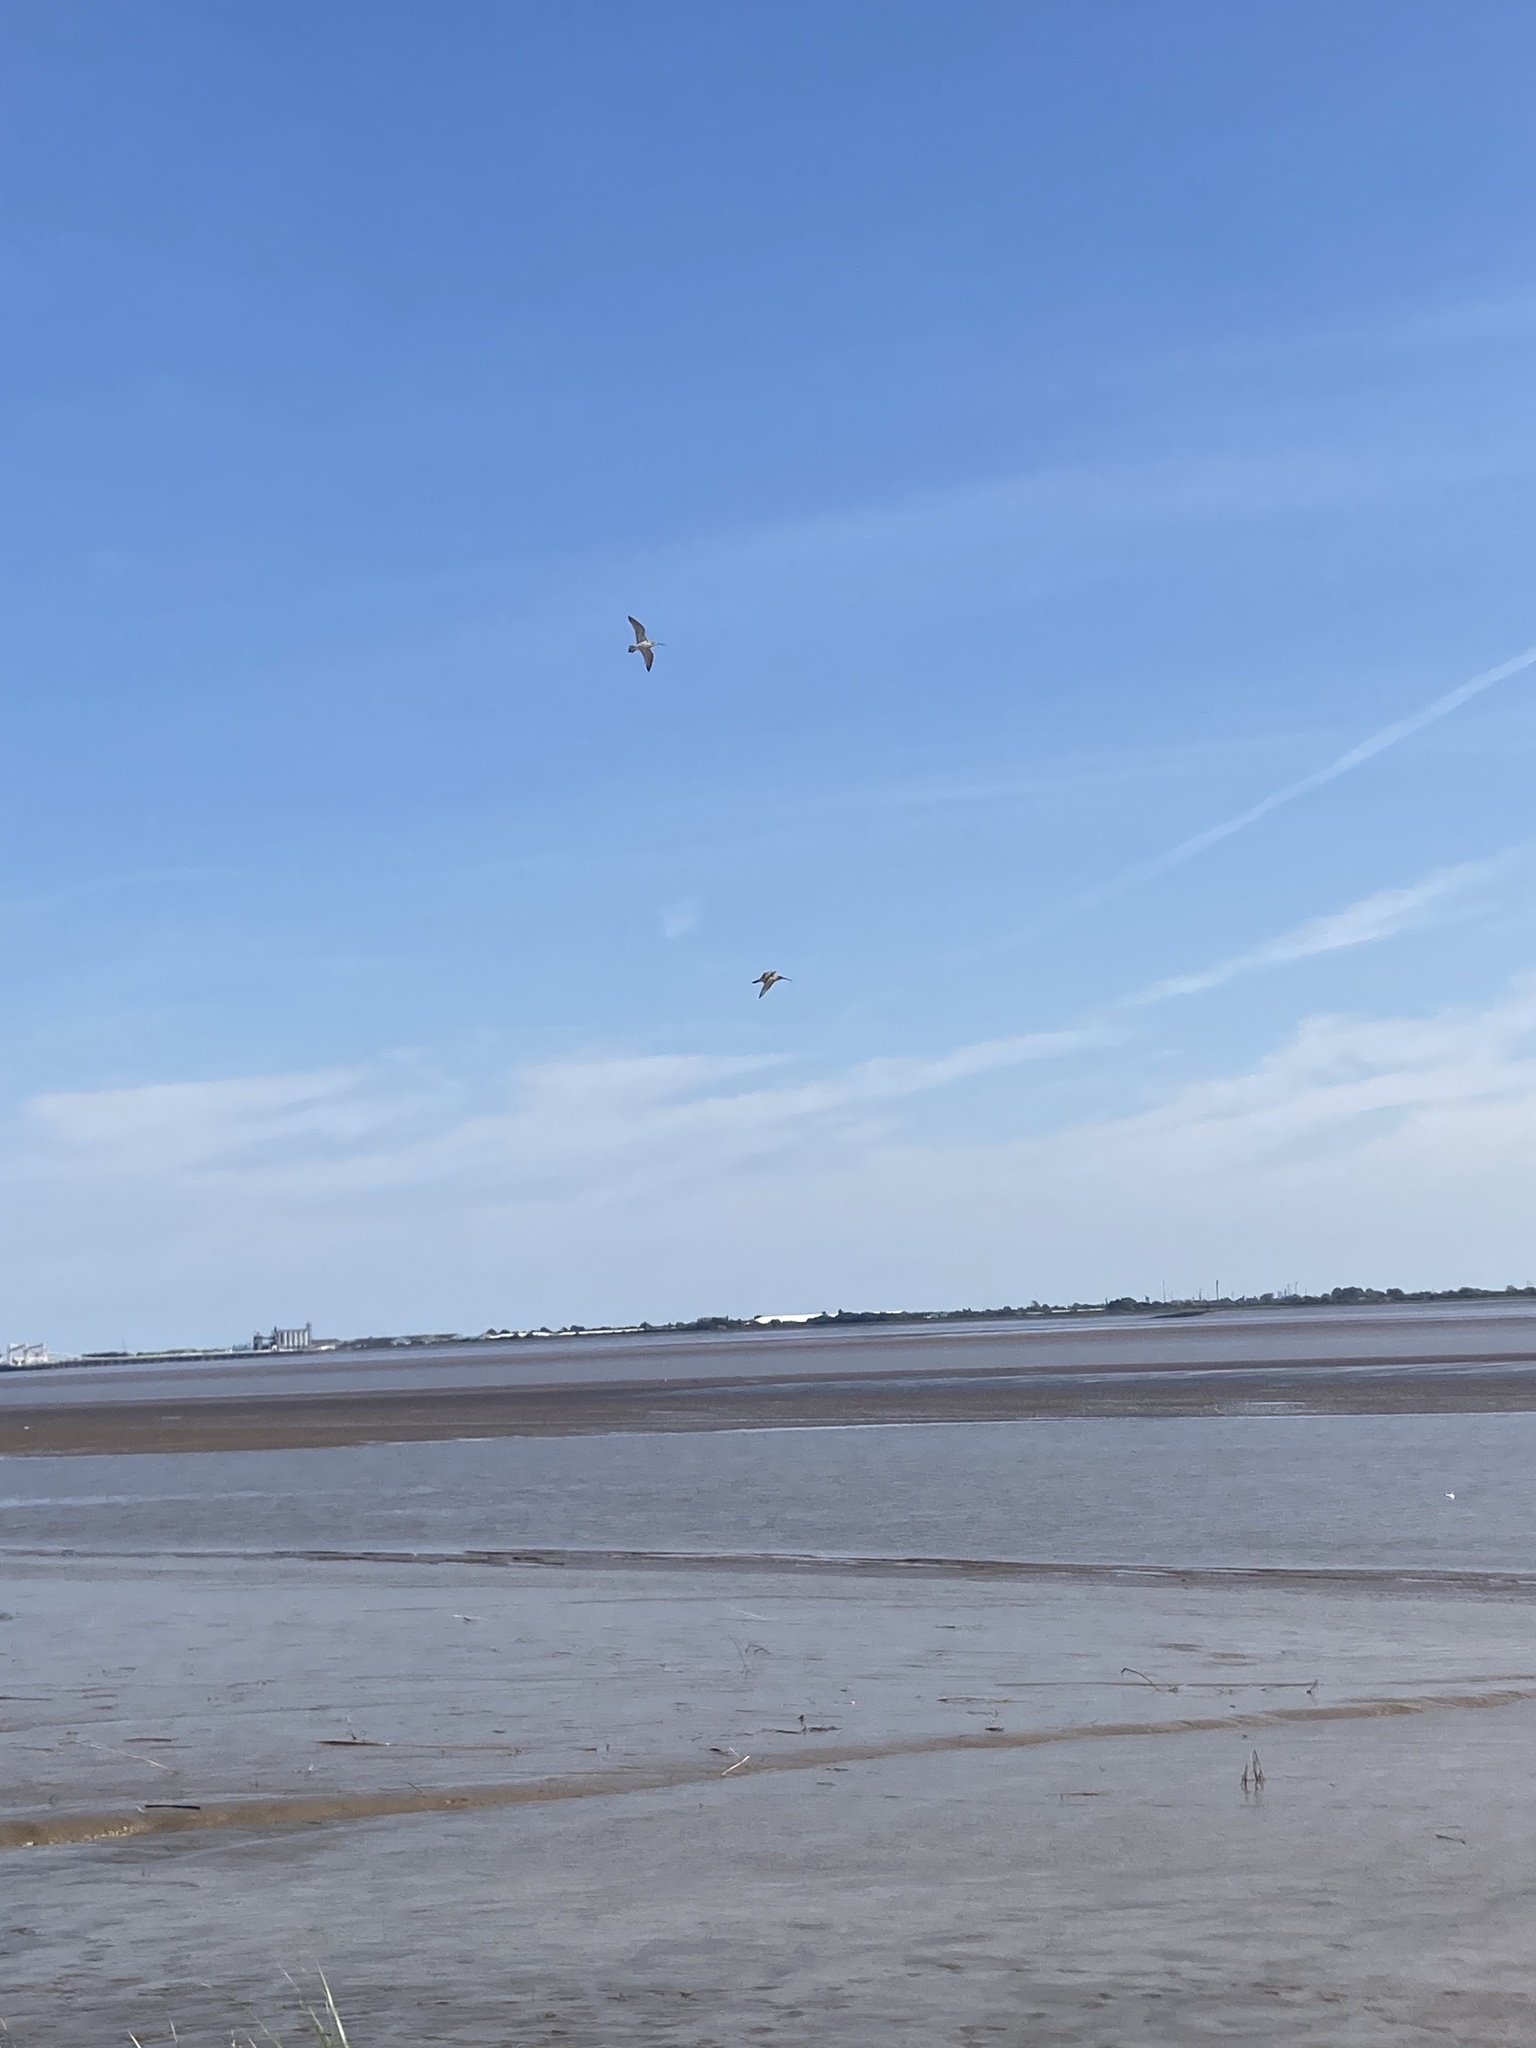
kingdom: Animalia
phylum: Chordata
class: Aves
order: Charadriiformes
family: Scolopacidae
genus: Numenius
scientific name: Numenius arquata
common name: Eurasian curlew
